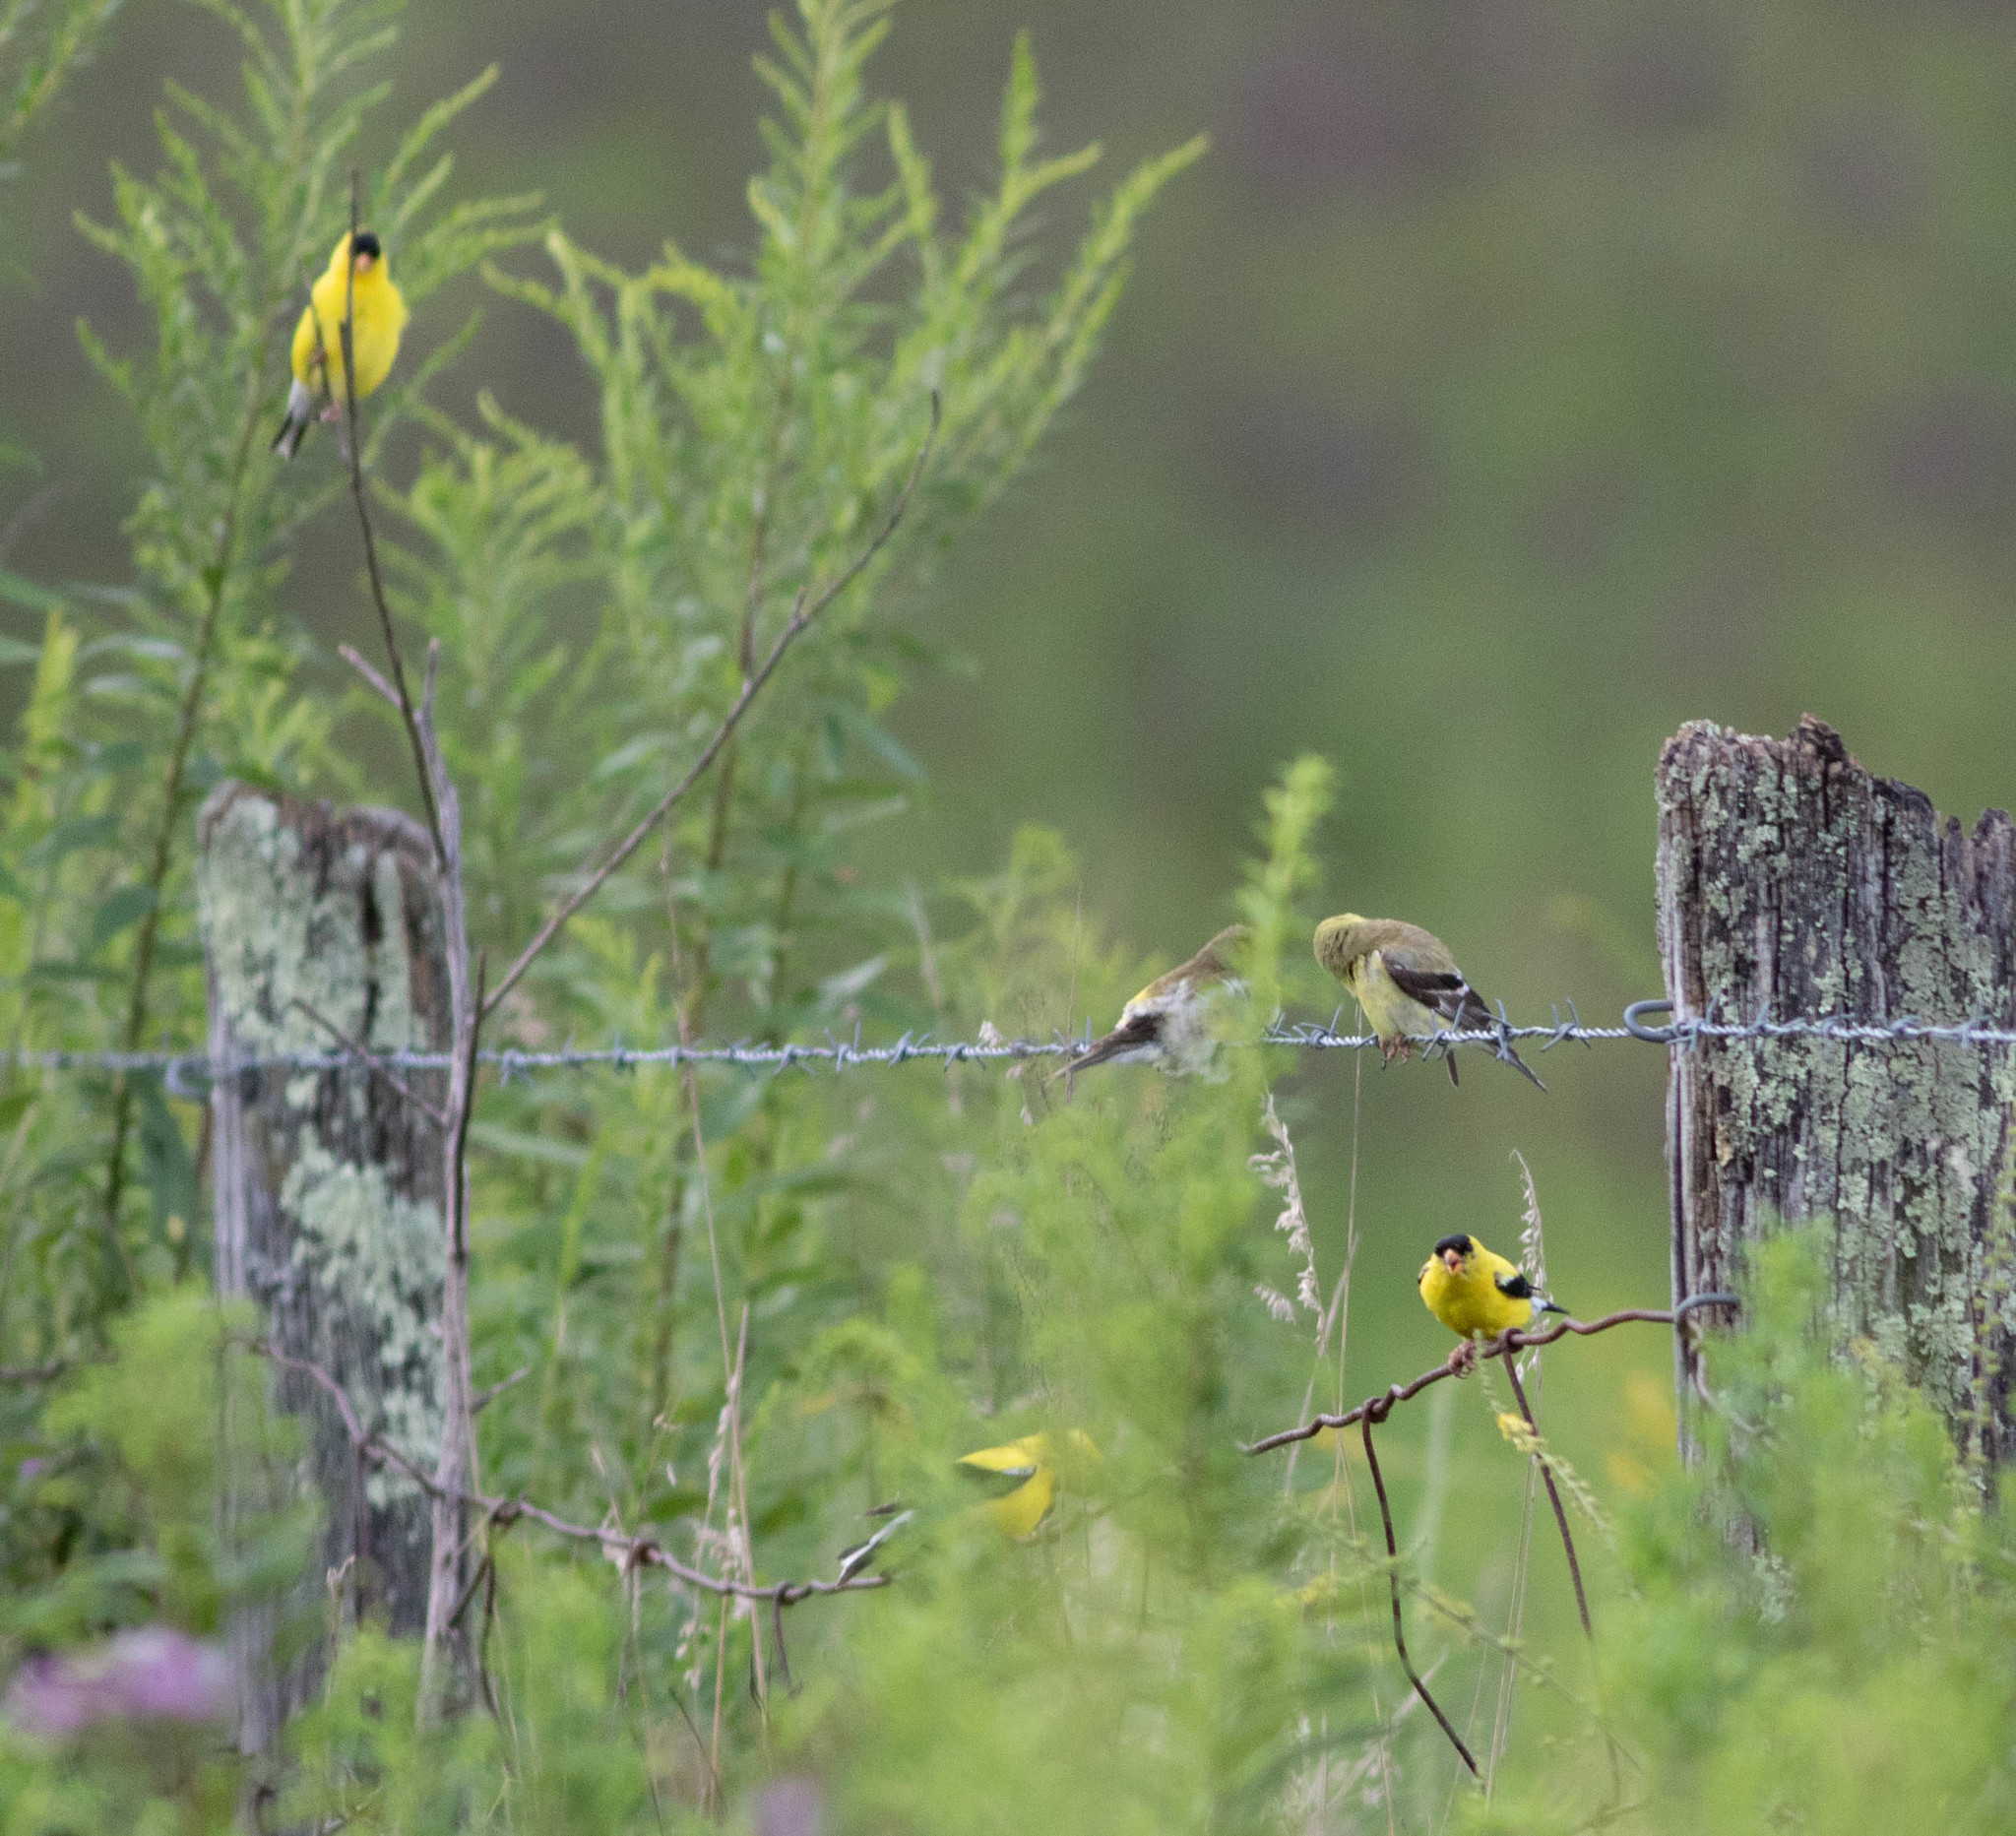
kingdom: Animalia
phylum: Chordata
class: Aves
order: Passeriformes
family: Fringillidae
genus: Spinus
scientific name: Spinus tristis
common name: American goldfinch
